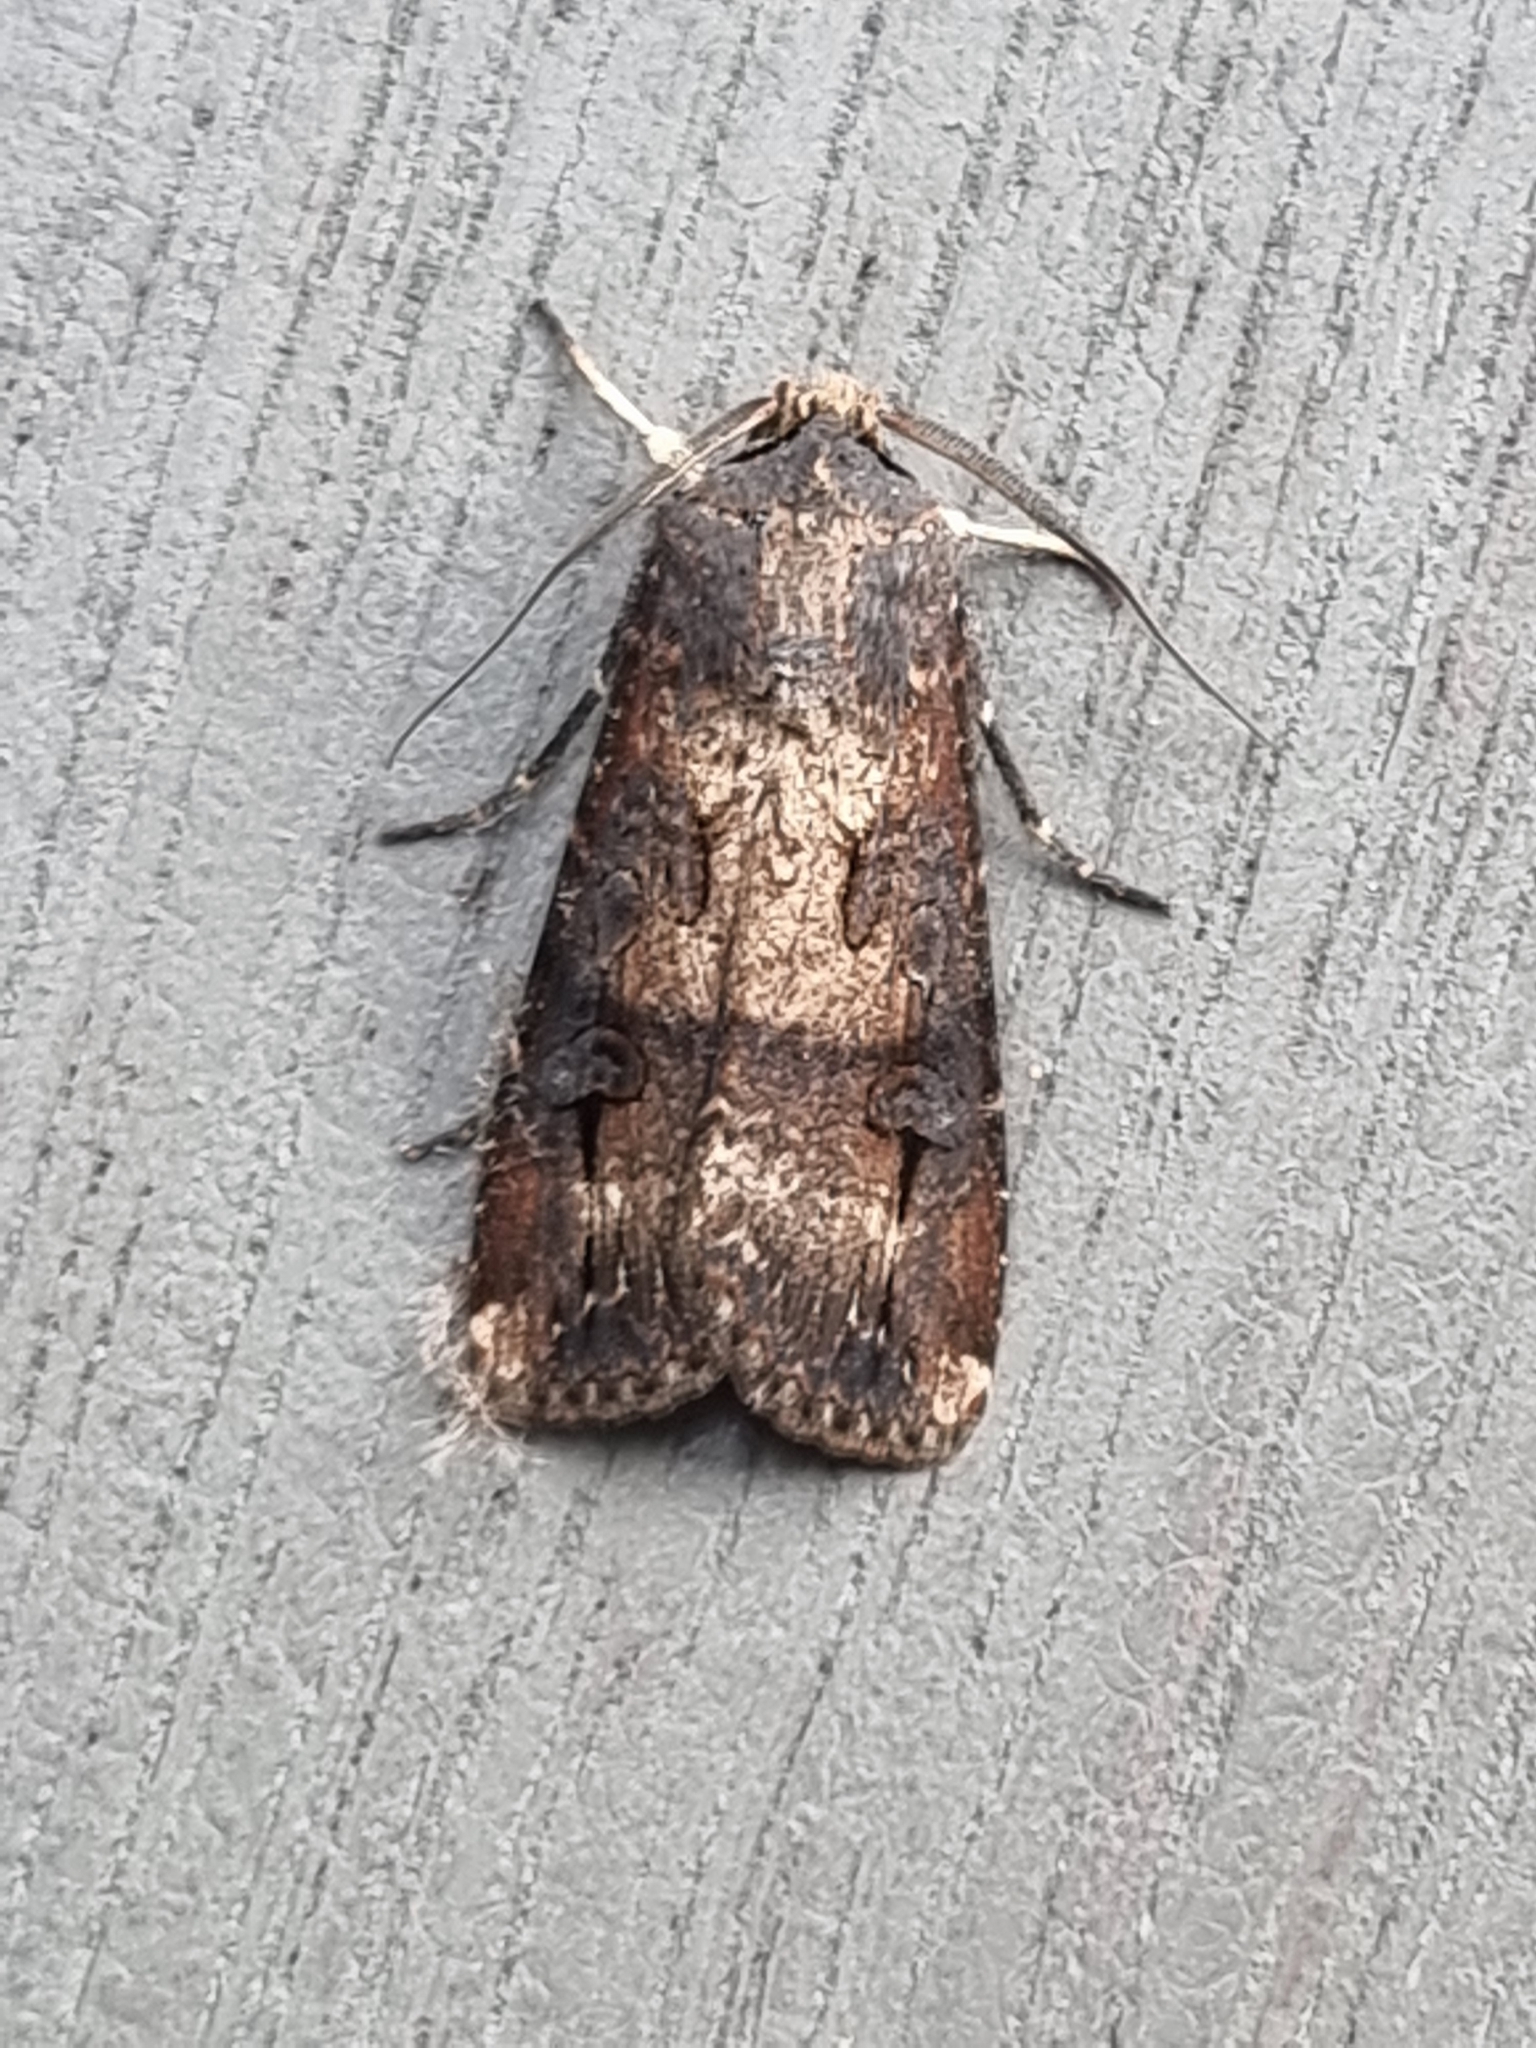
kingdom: Animalia
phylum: Arthropoda
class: Insecta
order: Lepidoptera
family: Noctuidae
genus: Agrotis
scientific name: Agrotis ipsilon
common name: Dark sword-grass
